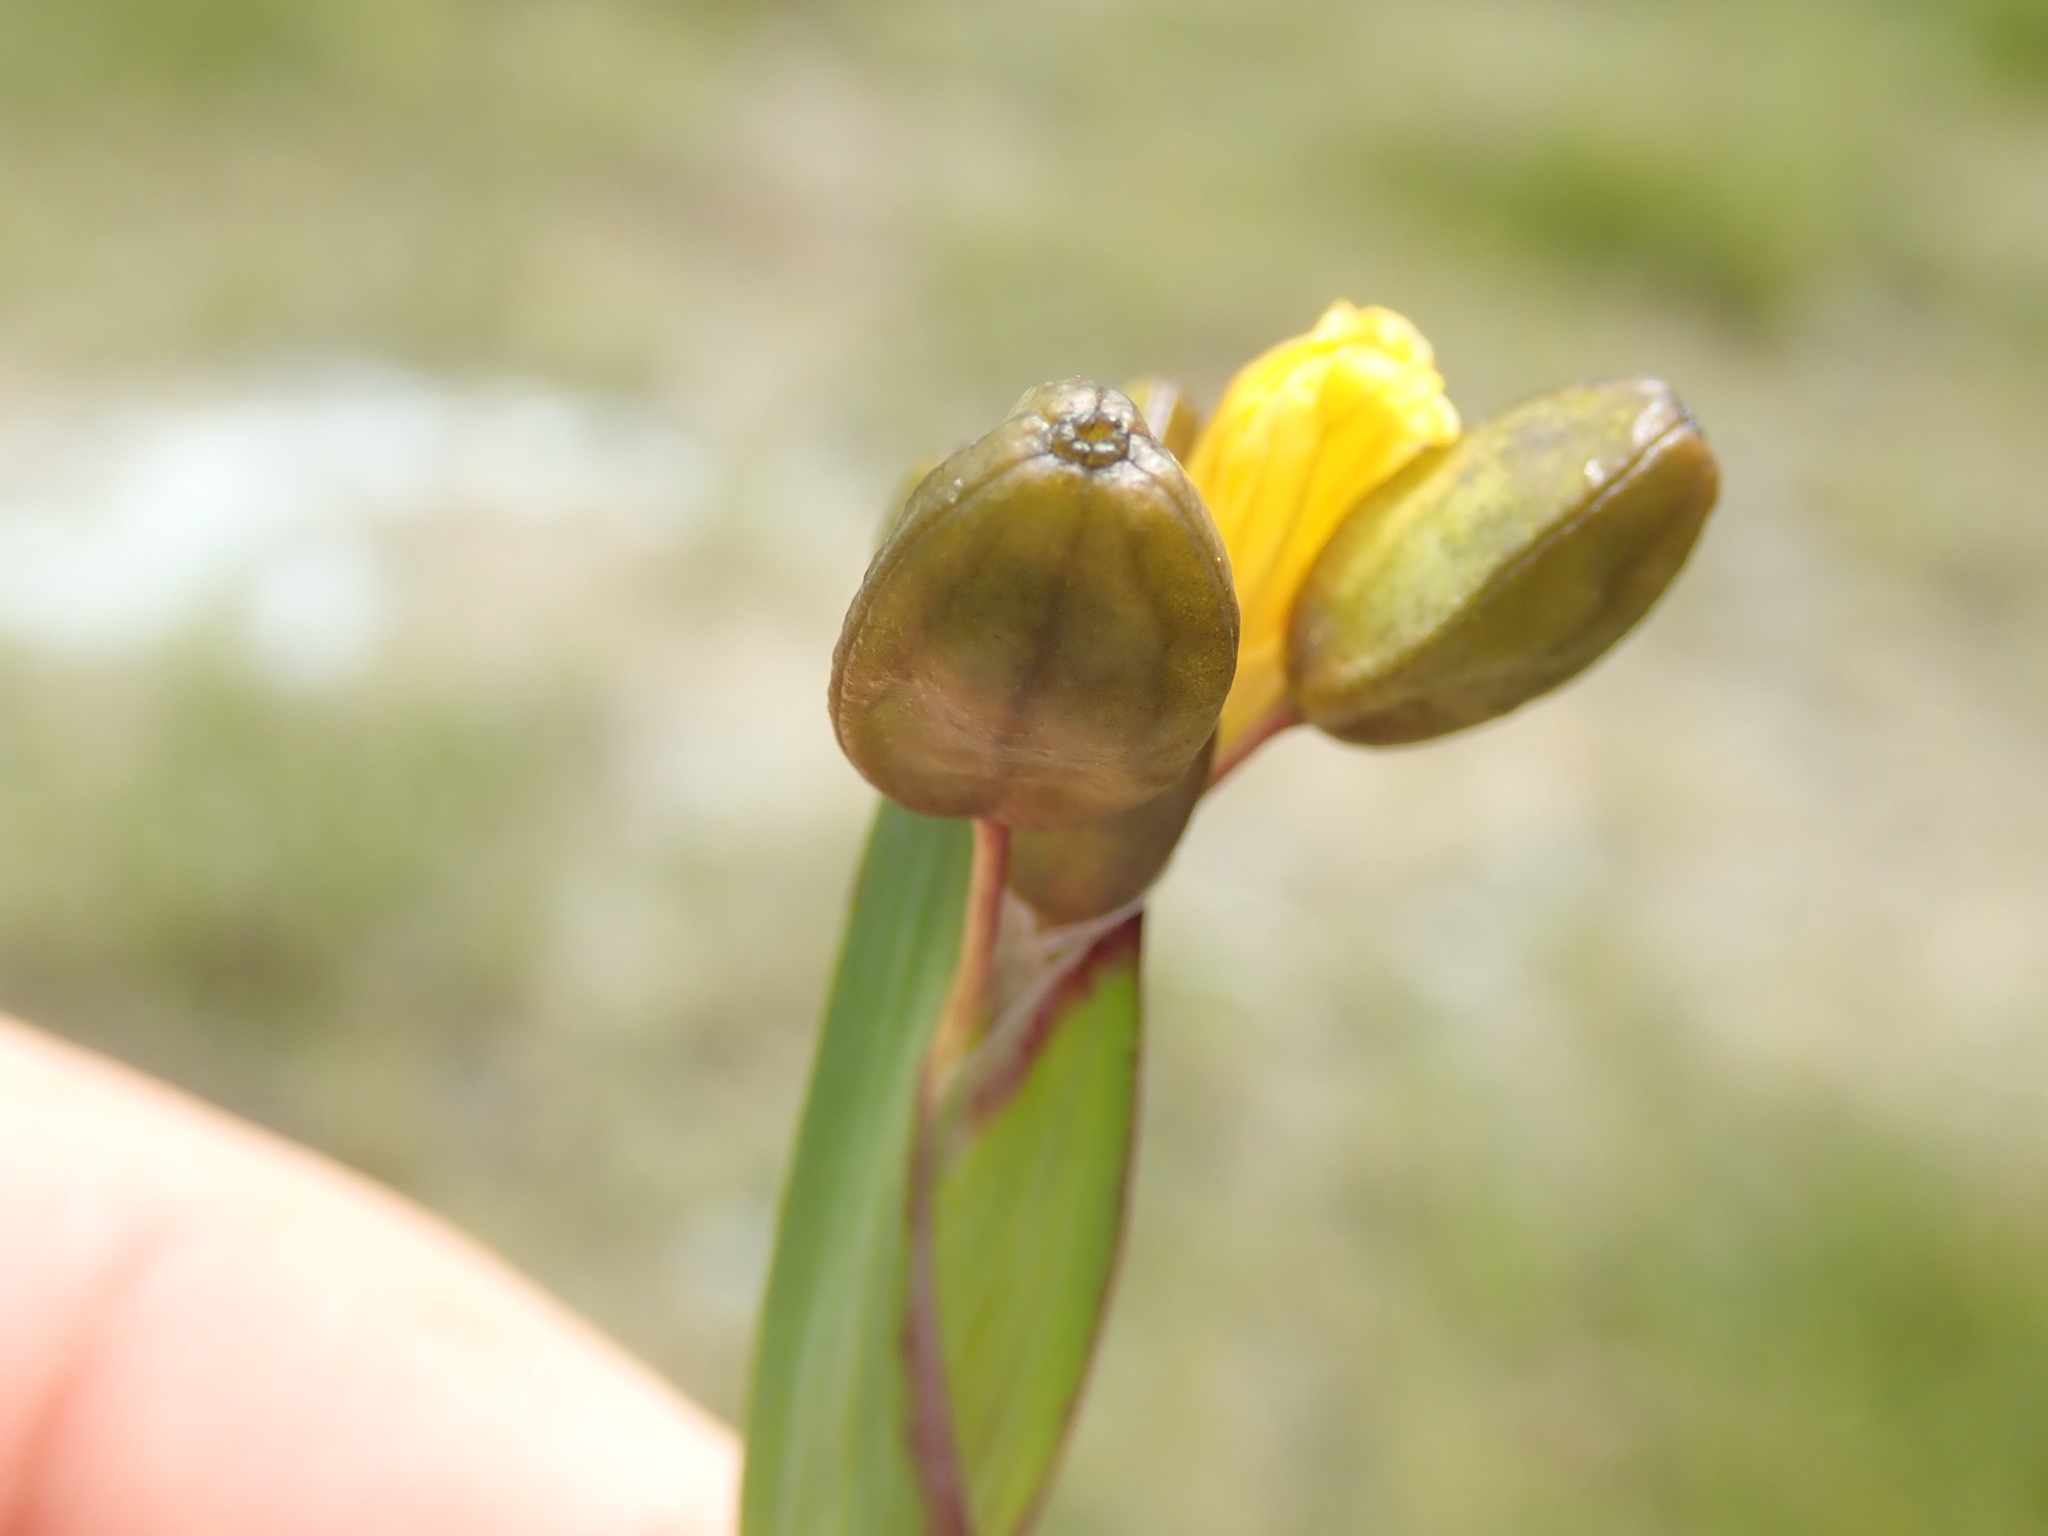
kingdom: Plantae
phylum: Tracheophyta
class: Liliopsida
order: Asparagales
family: Iridaceae
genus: Sisyrinchium
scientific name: Sisyrinchium californicum
